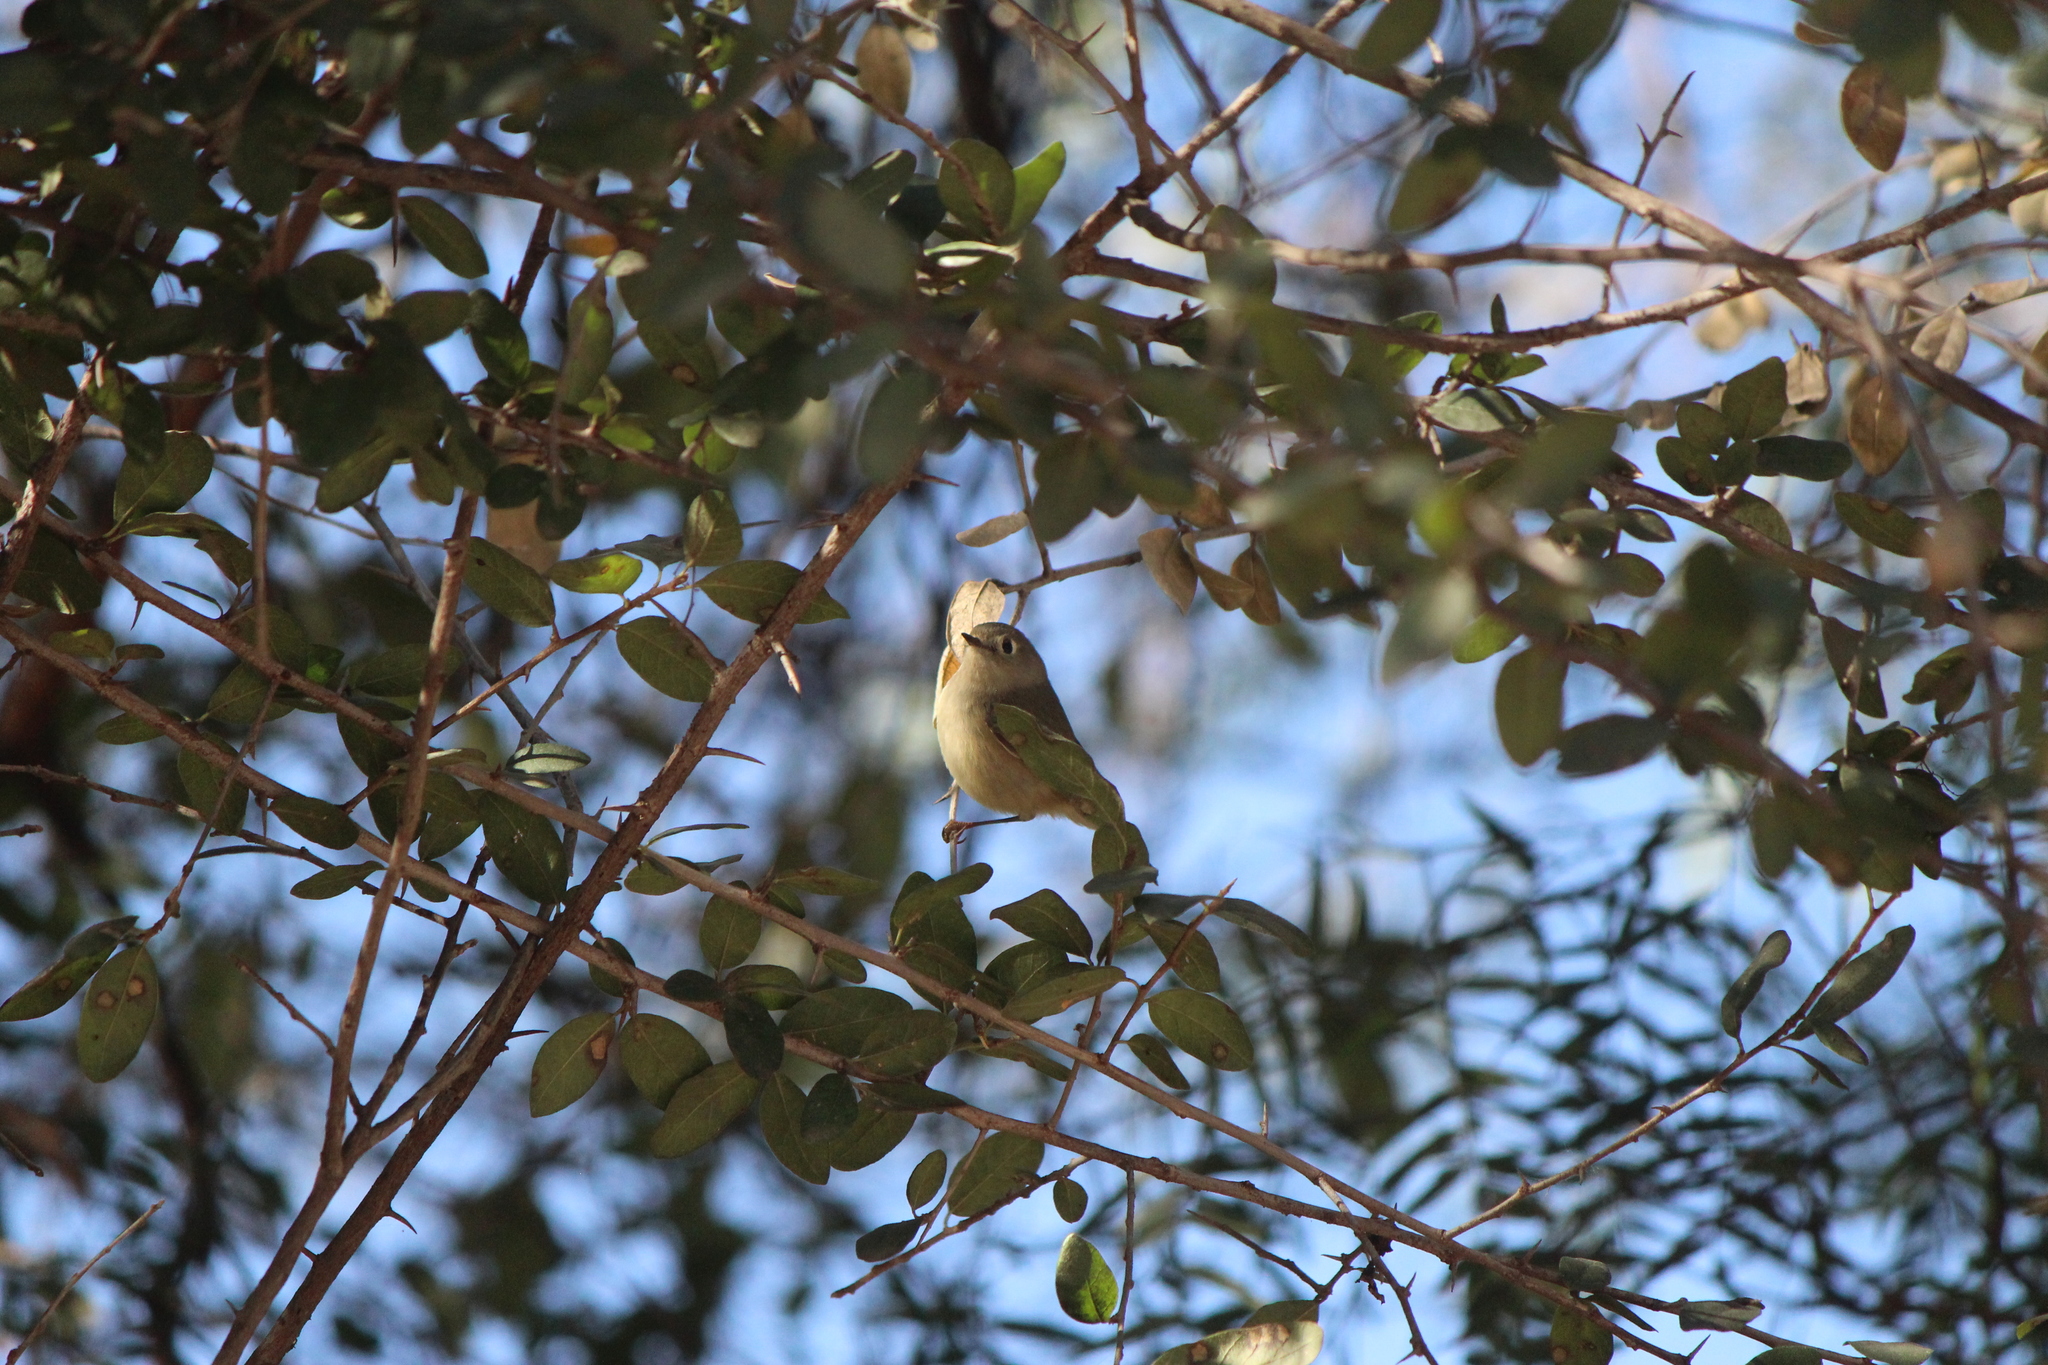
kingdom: Animalia
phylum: Chordata
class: Aves
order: Passeriformes
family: Regulidae
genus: Regulus
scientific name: Regulus calendula
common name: Ruby-crowned kinglet
